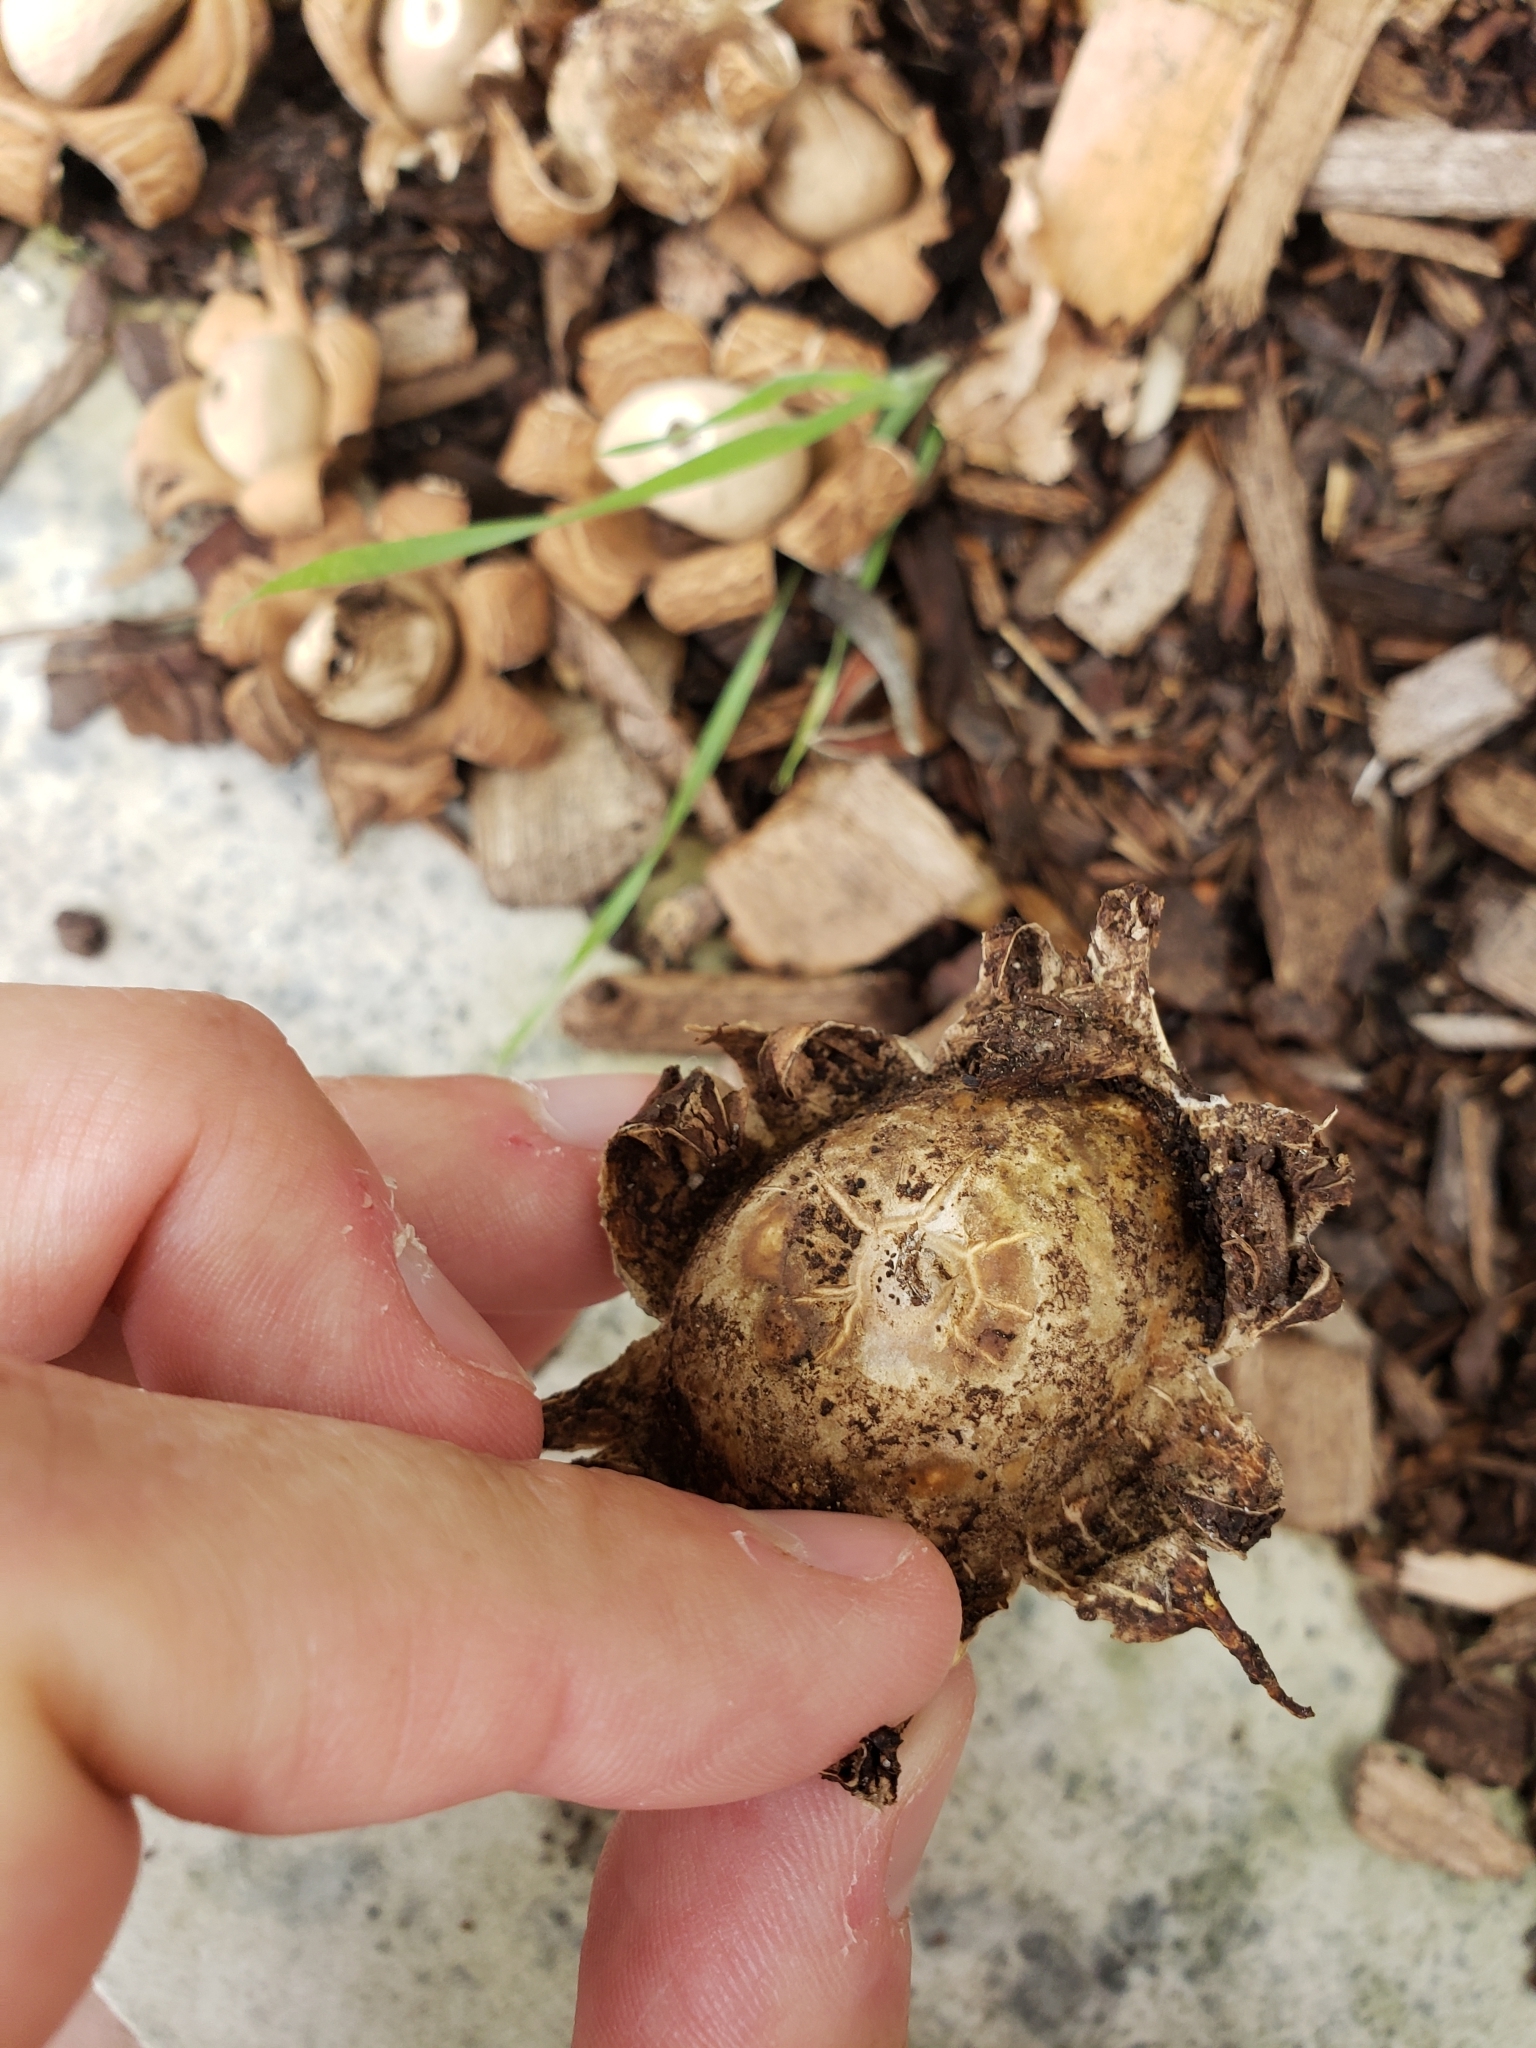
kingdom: Fungi
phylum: Basidiomycota
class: Agaricomycetes
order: Geastrales
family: Geastraceae
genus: Geastrum
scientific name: Geastrum saccatum
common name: Rounded earthstar
